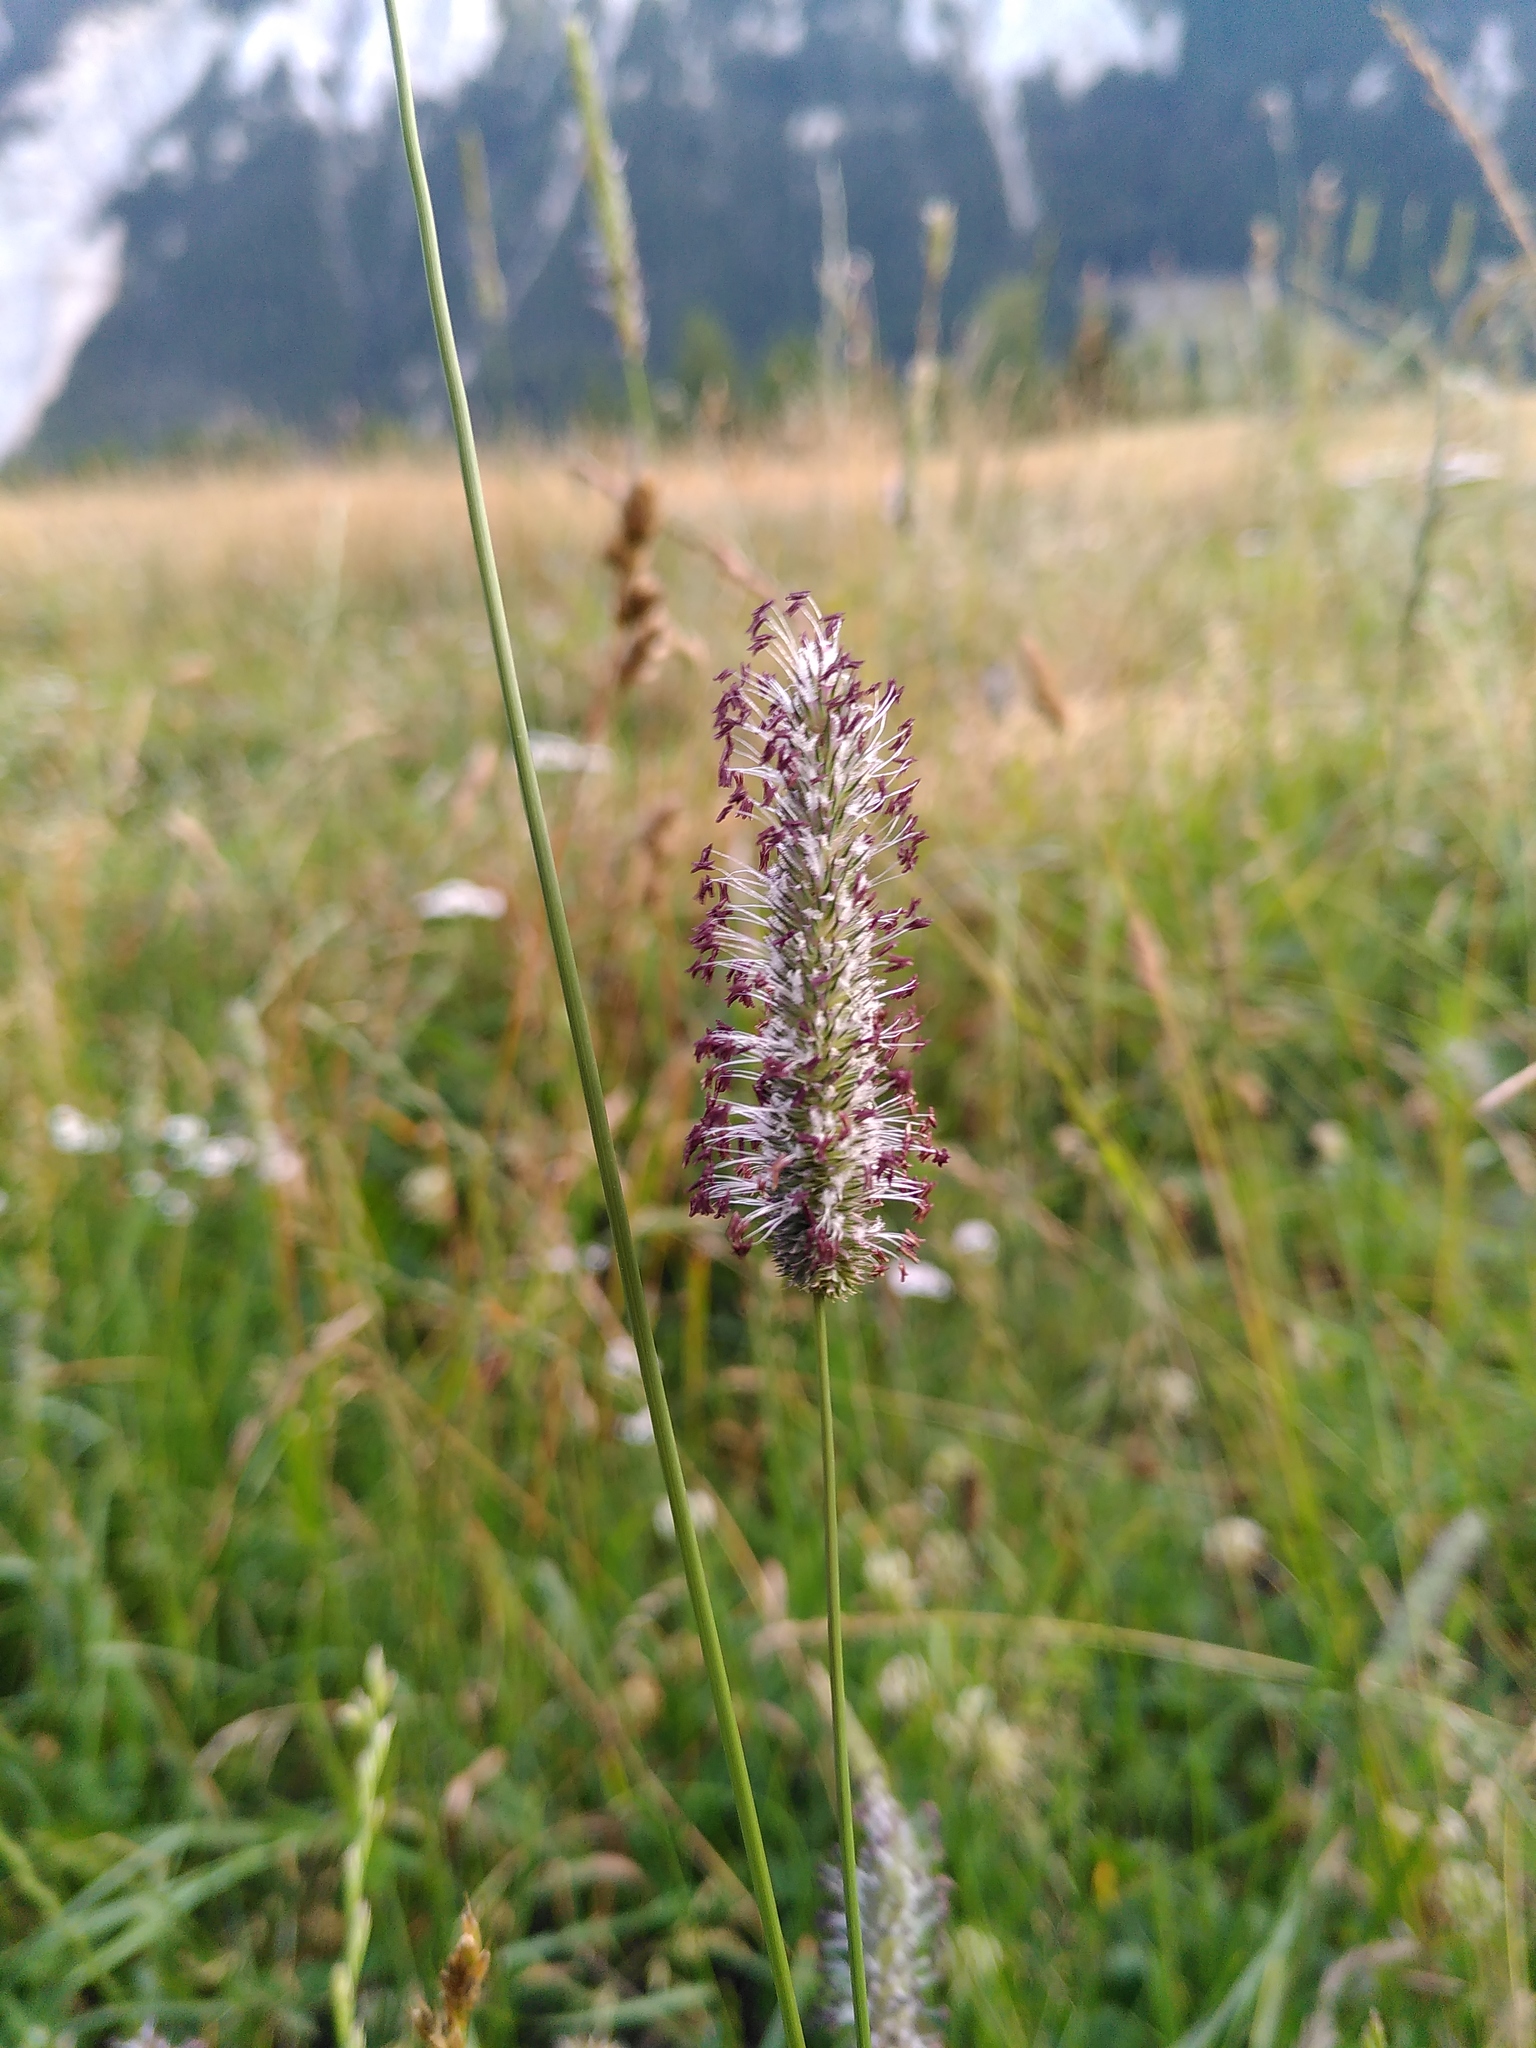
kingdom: Plantae
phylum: Tracheophyta
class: Liliopsida
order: Poales
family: Poaceae
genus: Phleum
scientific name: Phleum pratense
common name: Timothy grass
